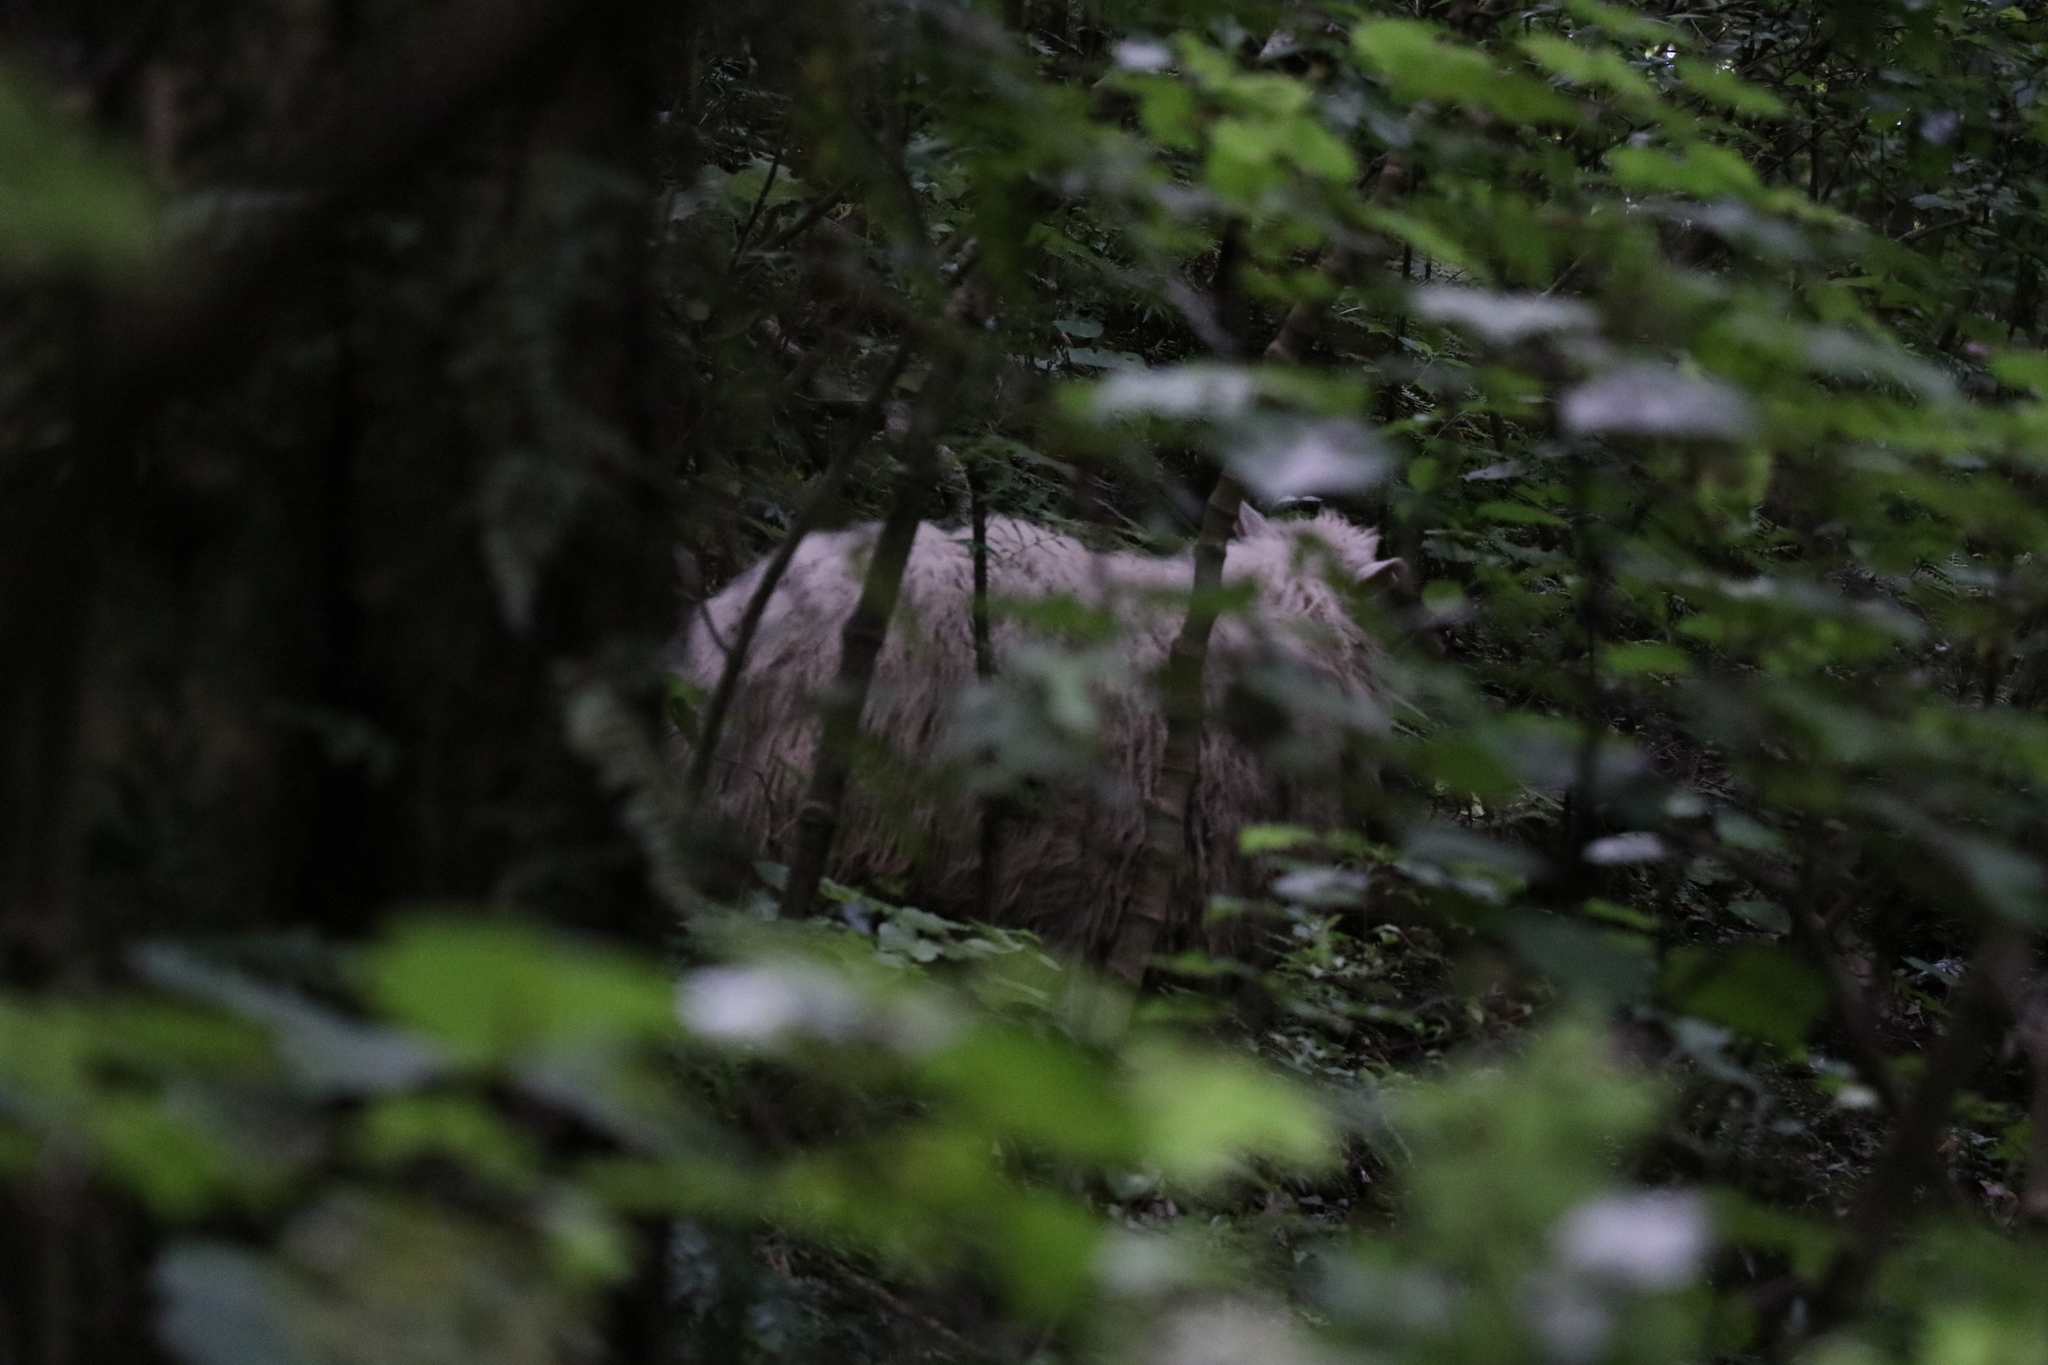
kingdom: Animalia
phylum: Chordata
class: Mammalia
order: Artiodactyla
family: Bovidae
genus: Ovis
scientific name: Ovis aries
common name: Domestic sheep
